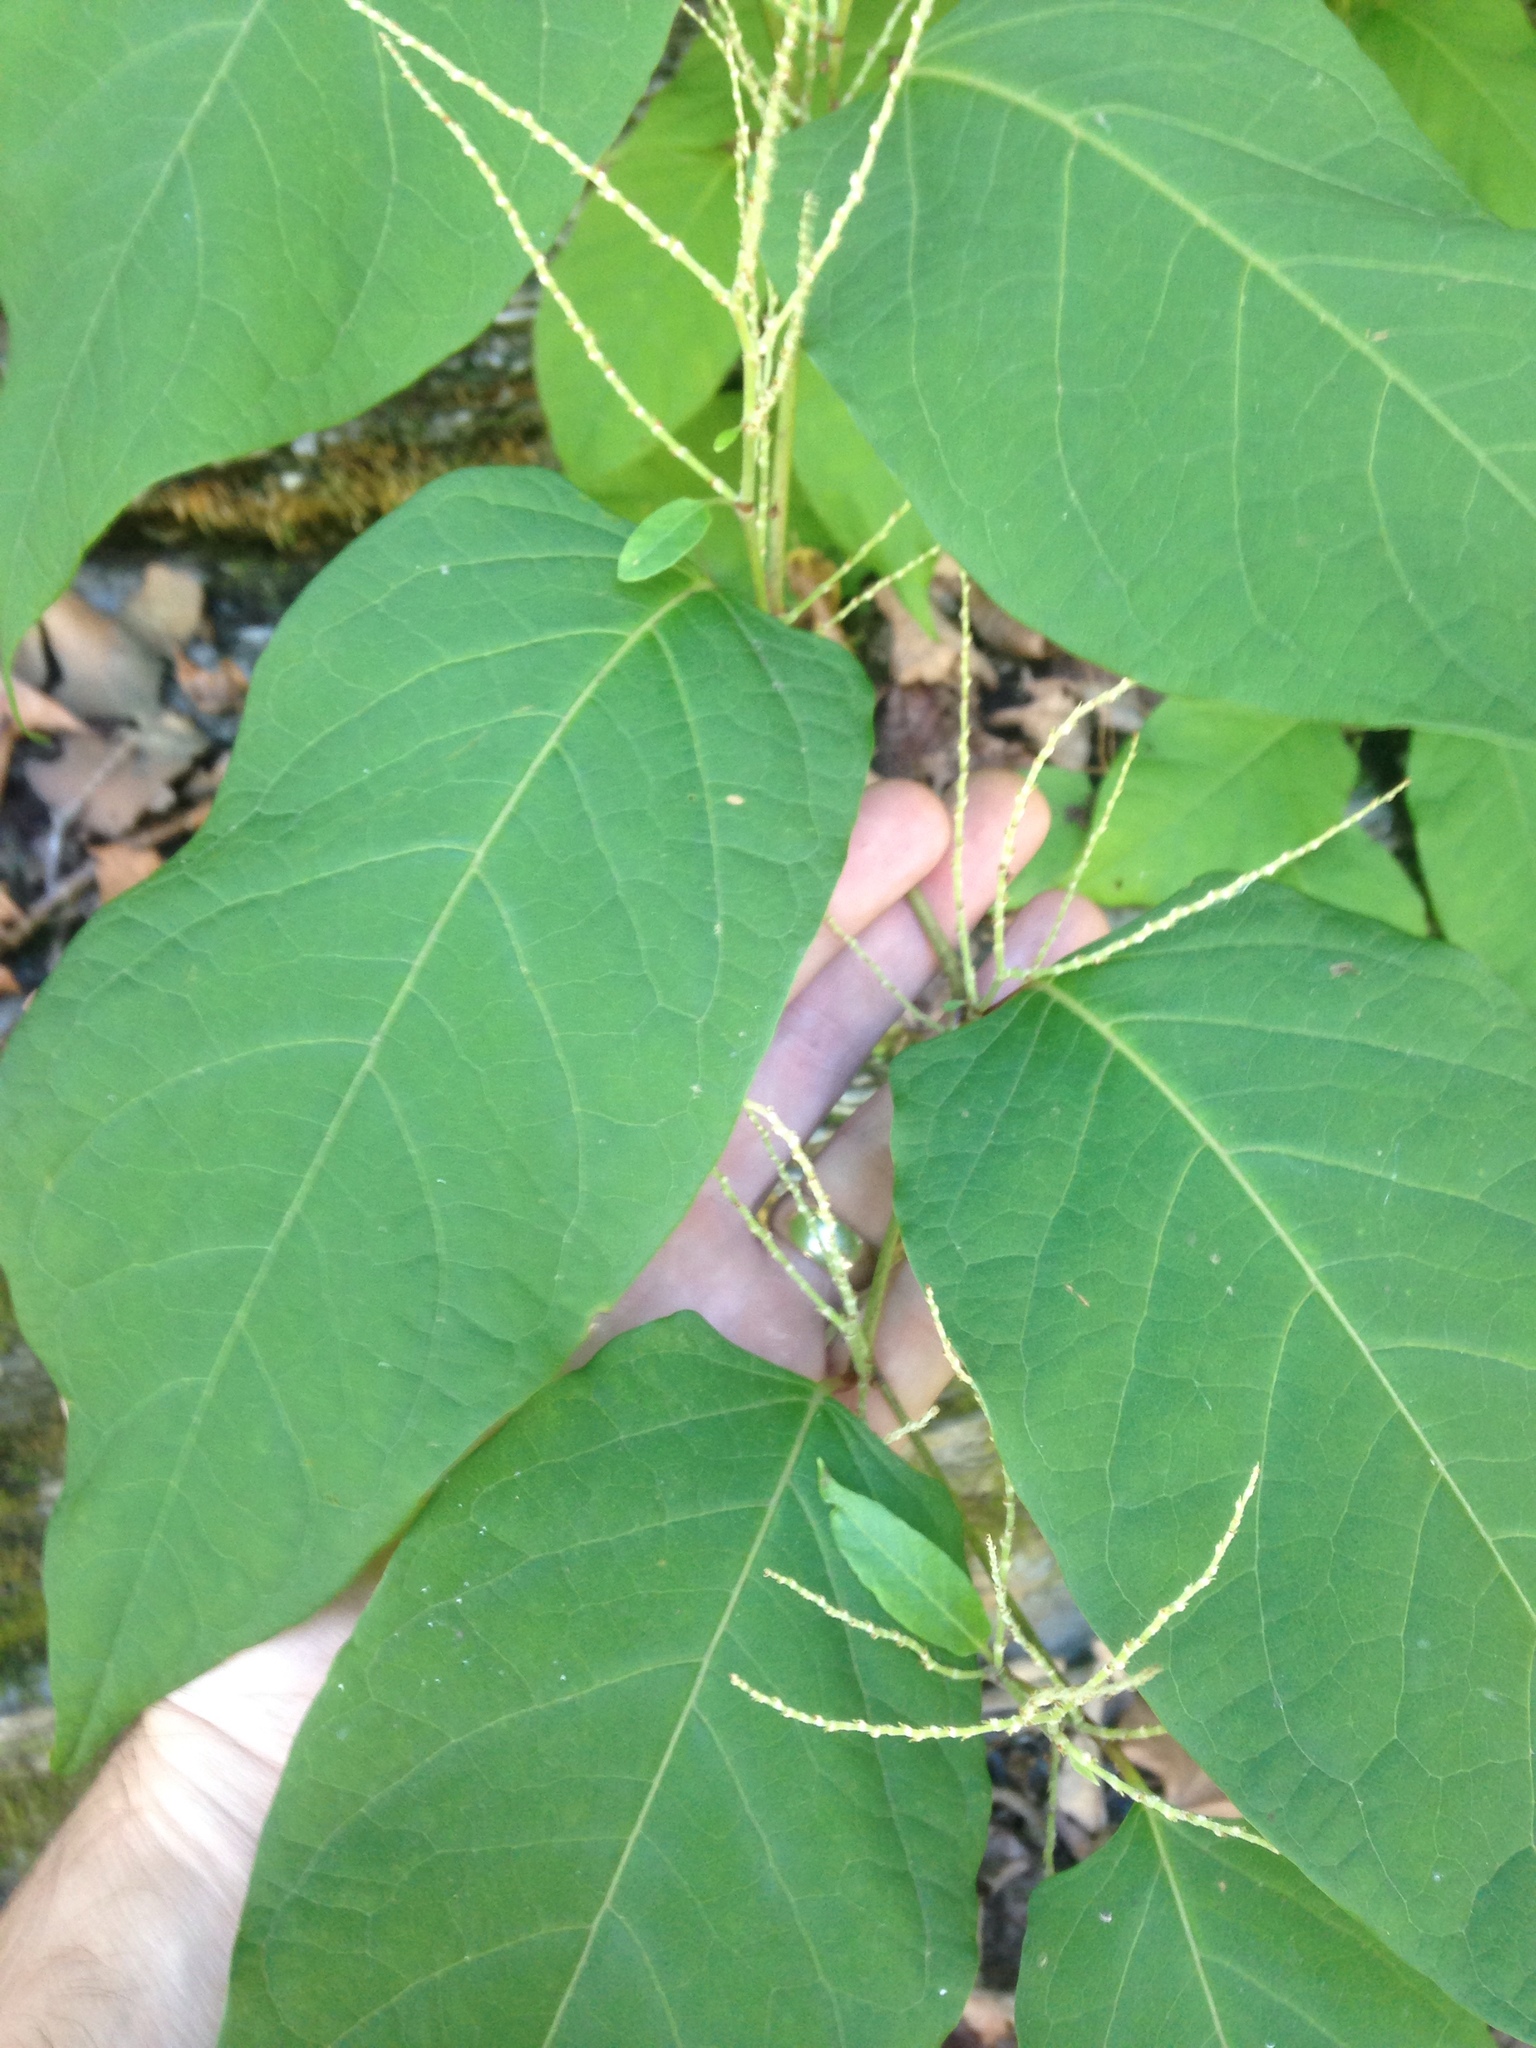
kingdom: Plantae
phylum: Tracheophyta
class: Magnoliopsida
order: Caryophyllales
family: Polygonaceae
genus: Reynoutria
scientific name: Reynoutria japonica
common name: Japanese knotweed
